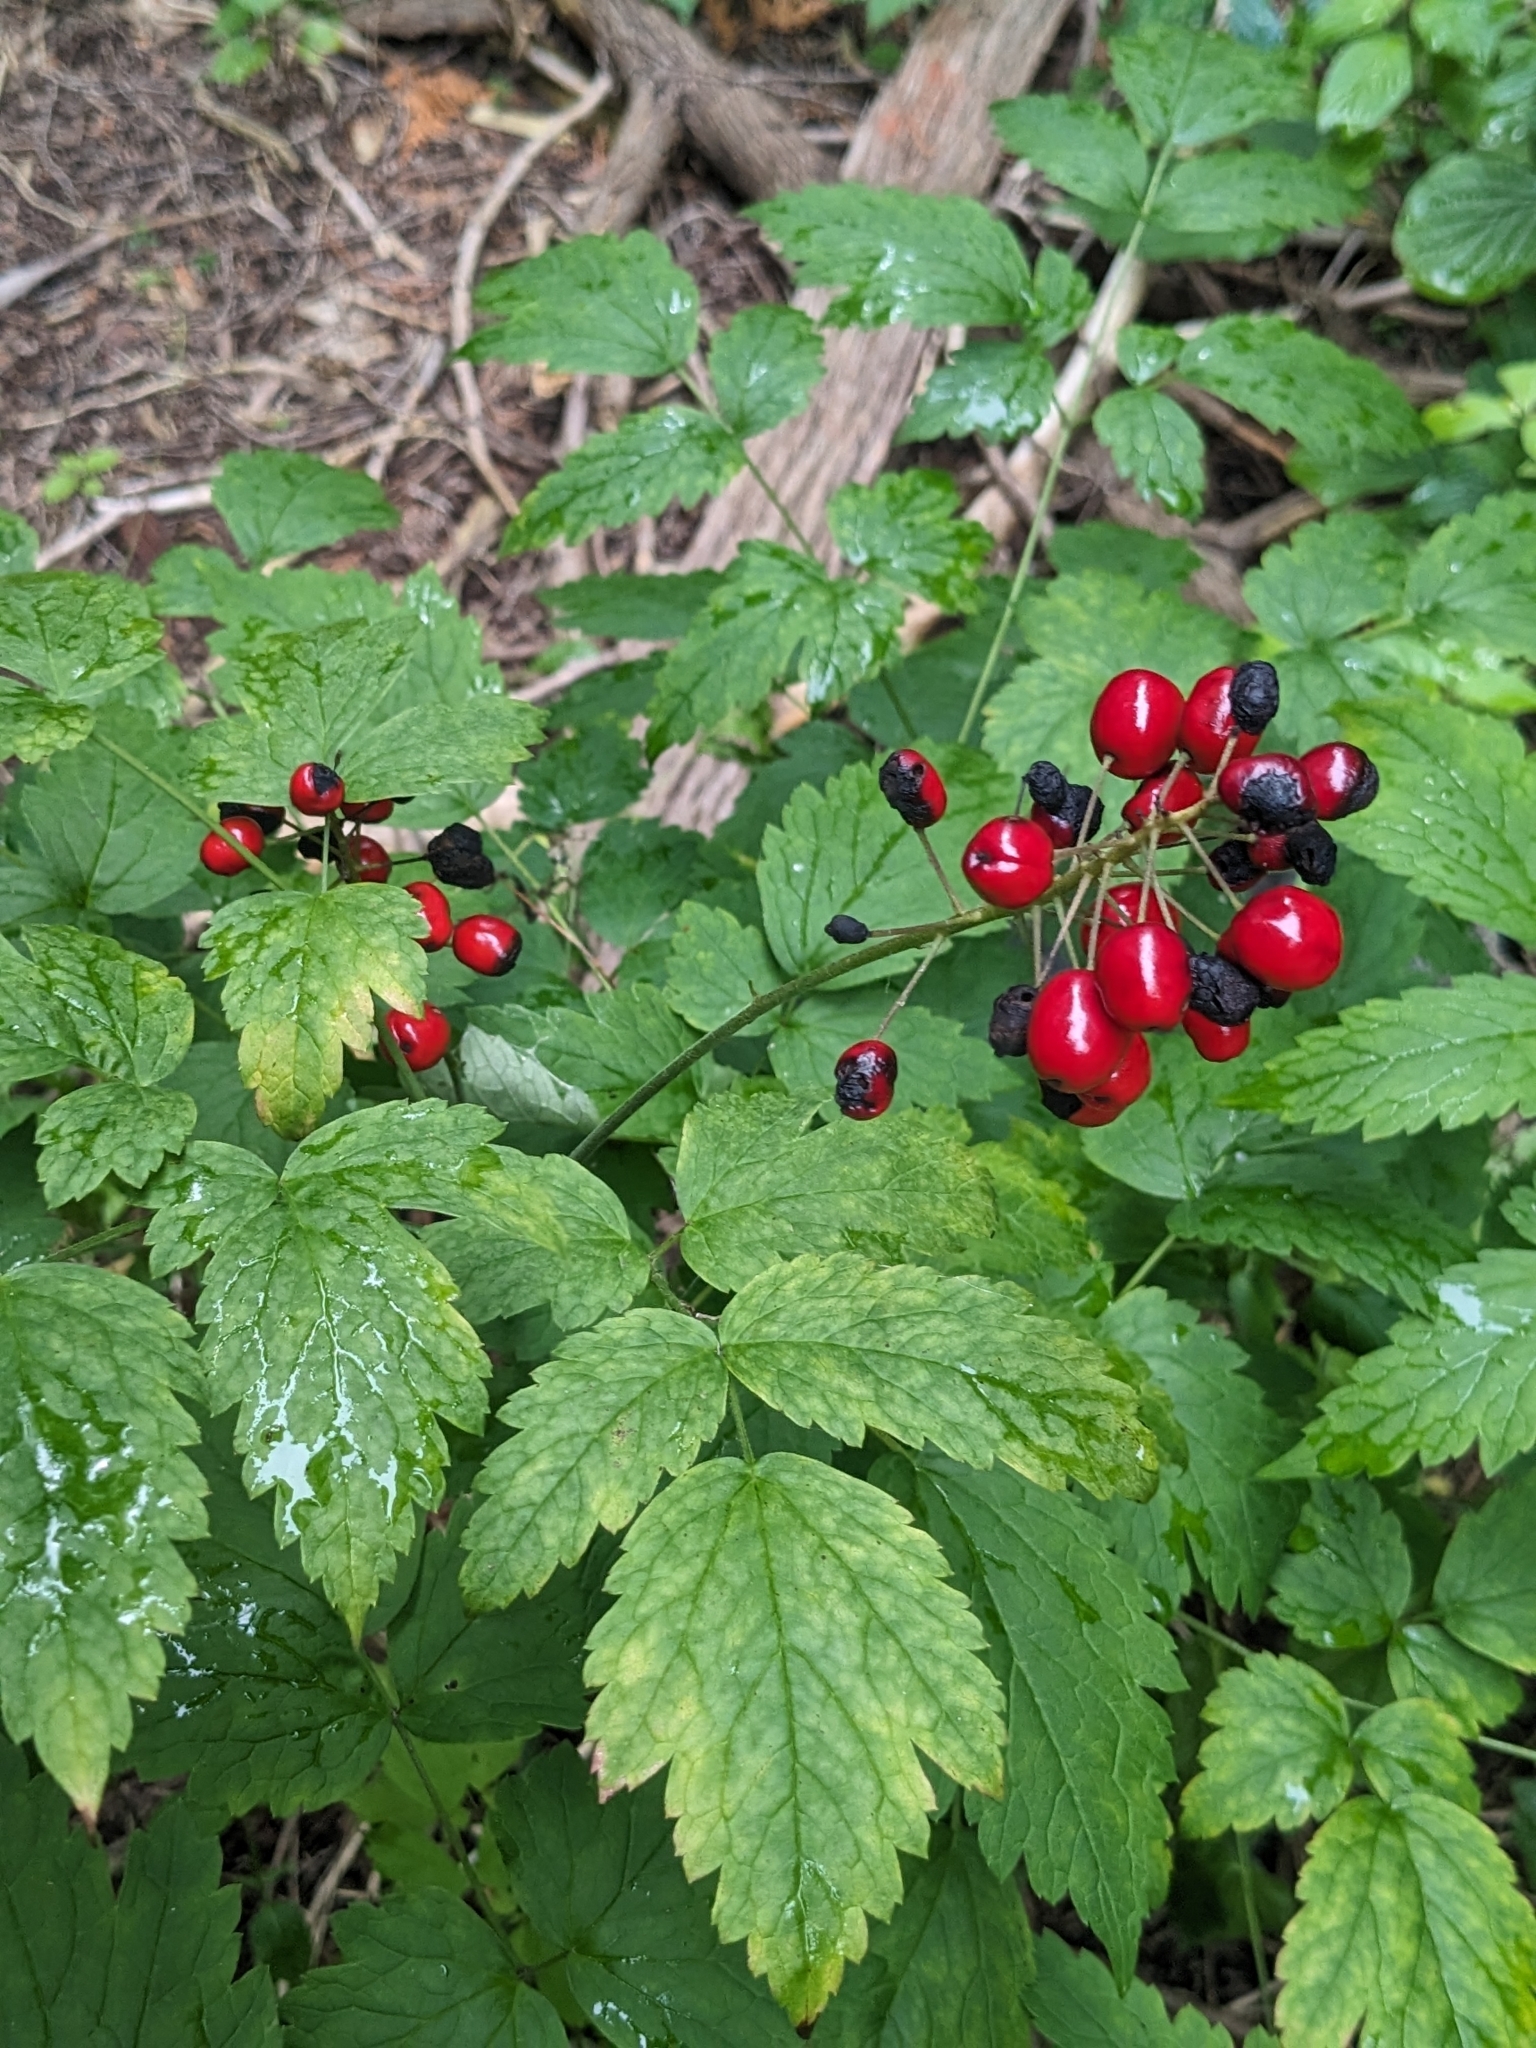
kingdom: Plantae
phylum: Tracheophyta
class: Magnoliopsida
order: Ranunculales
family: Ranunculaceae
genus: Actaea
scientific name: Actaea rubra
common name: Red baneberry
